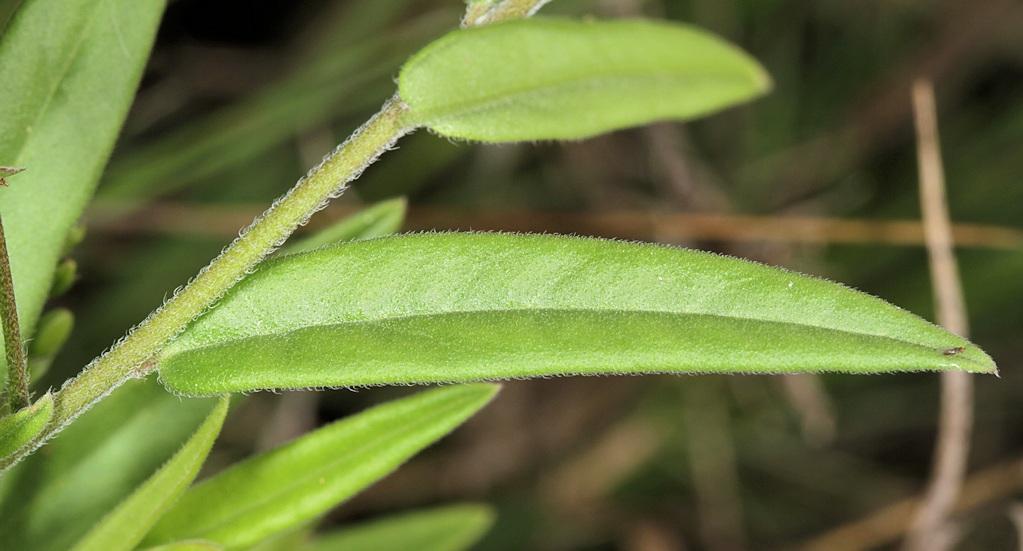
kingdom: Plantae
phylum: Tracheophyta
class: Magnoliopsida
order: Fabales
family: Polygalaceae
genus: Polygala
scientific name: Polygala sphenoptera
